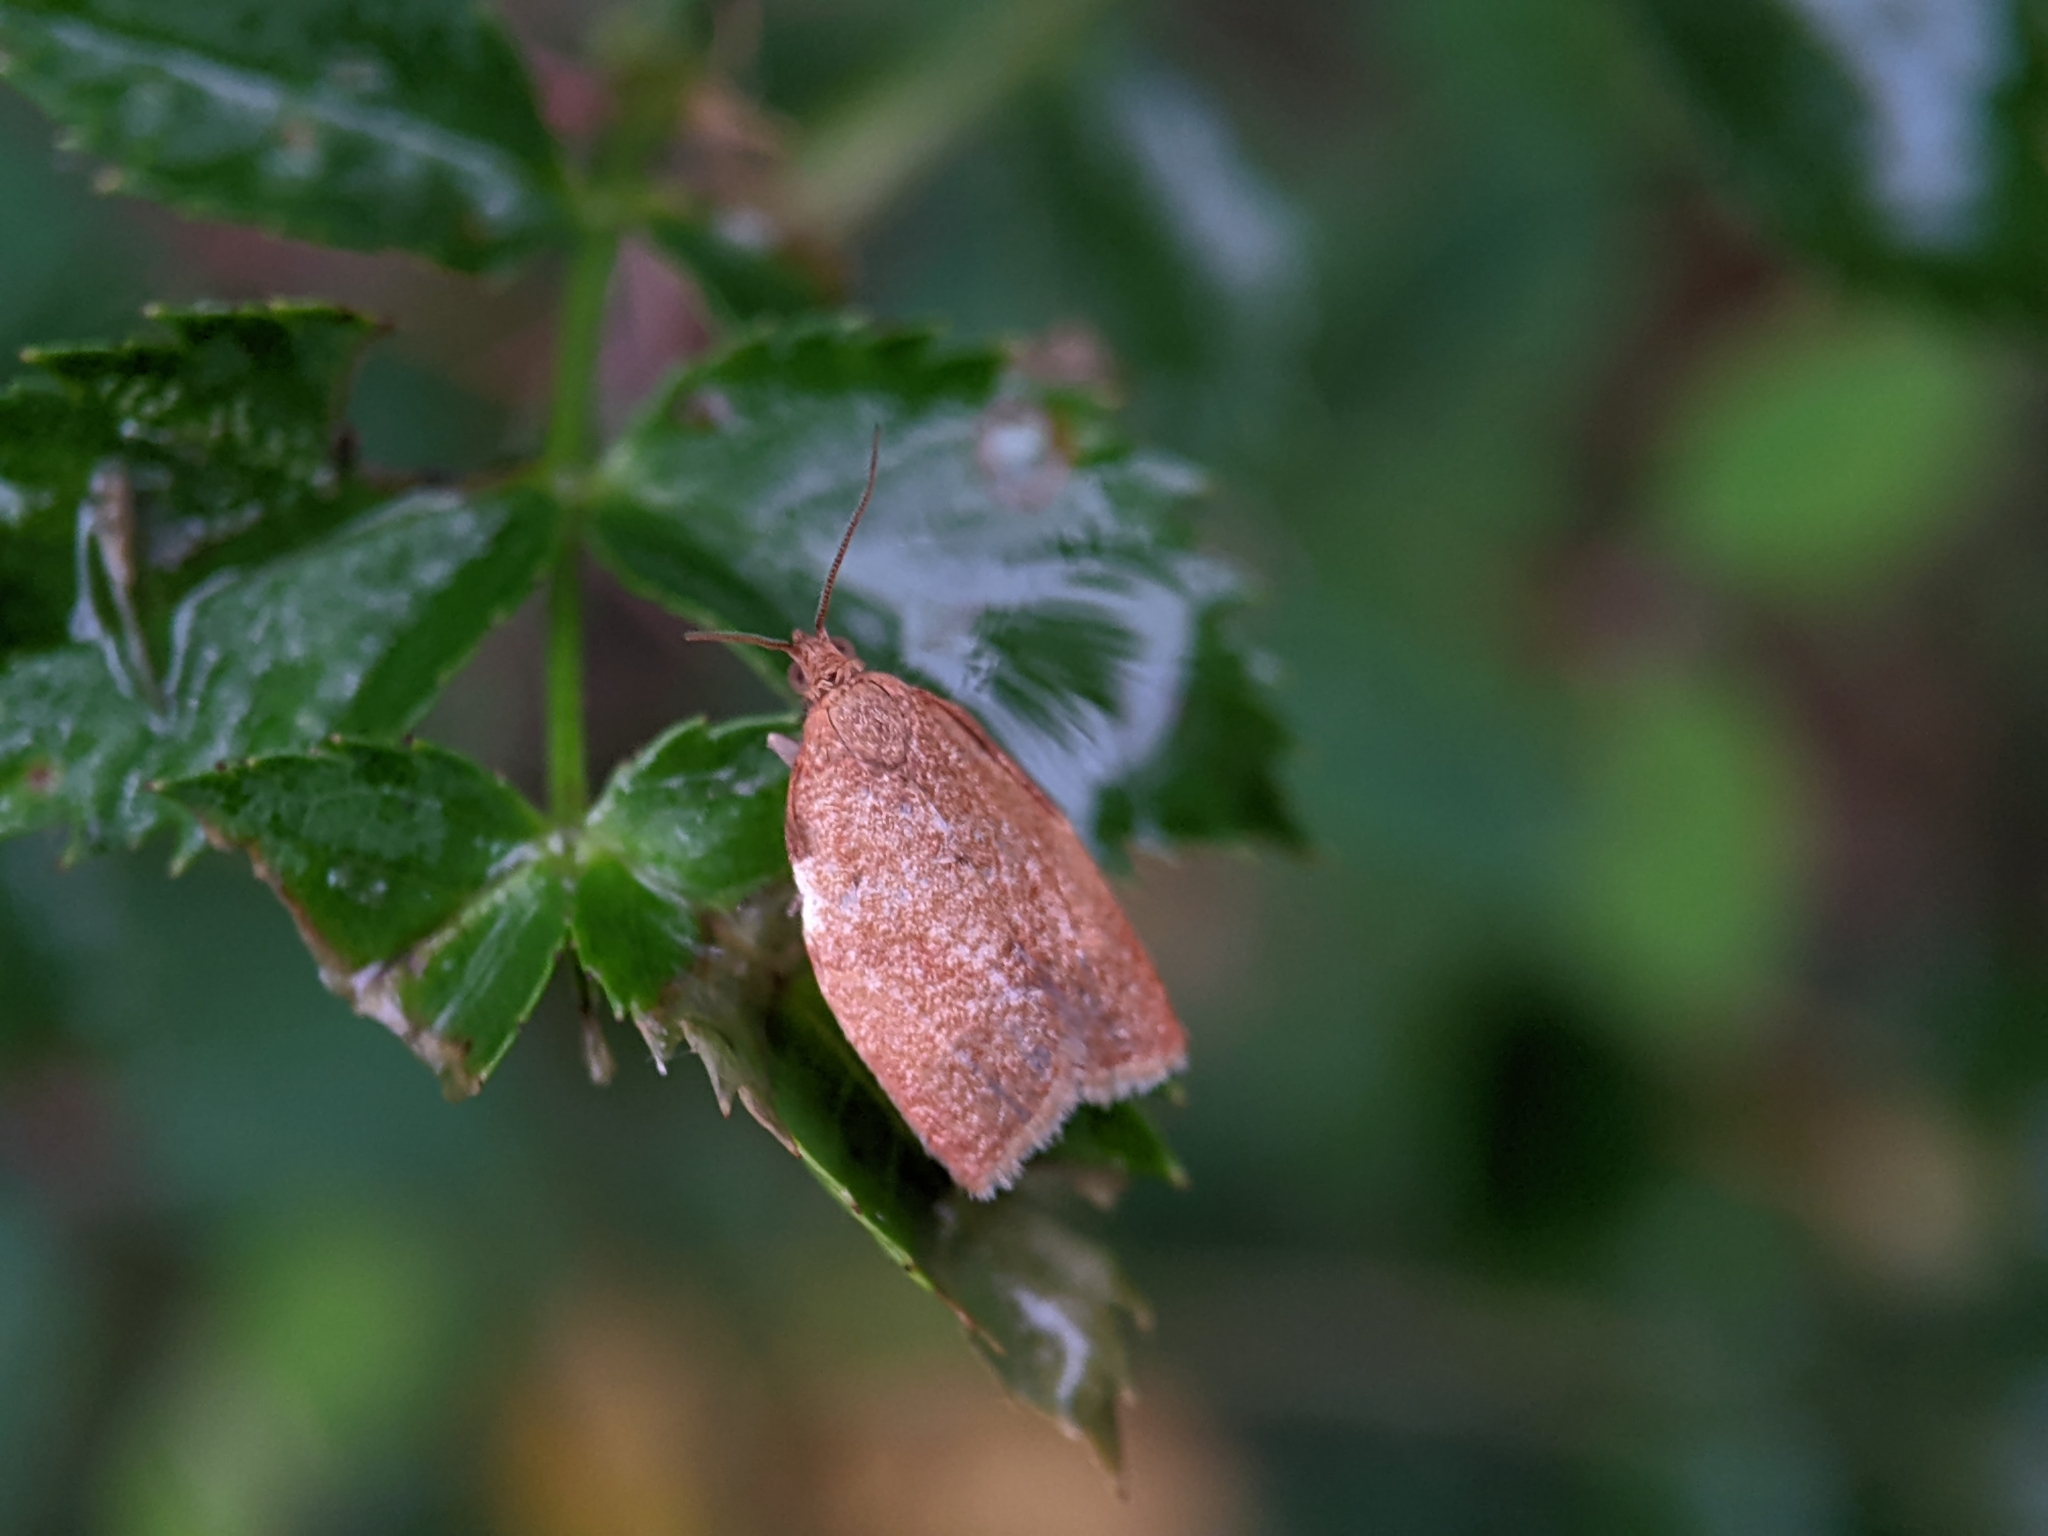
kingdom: Animalia
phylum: Arthropoda
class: Insecta
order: Lepidoptera
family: Tortricidae
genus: Clepsis
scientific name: Clepsis consimilana
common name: Privet tortrix
